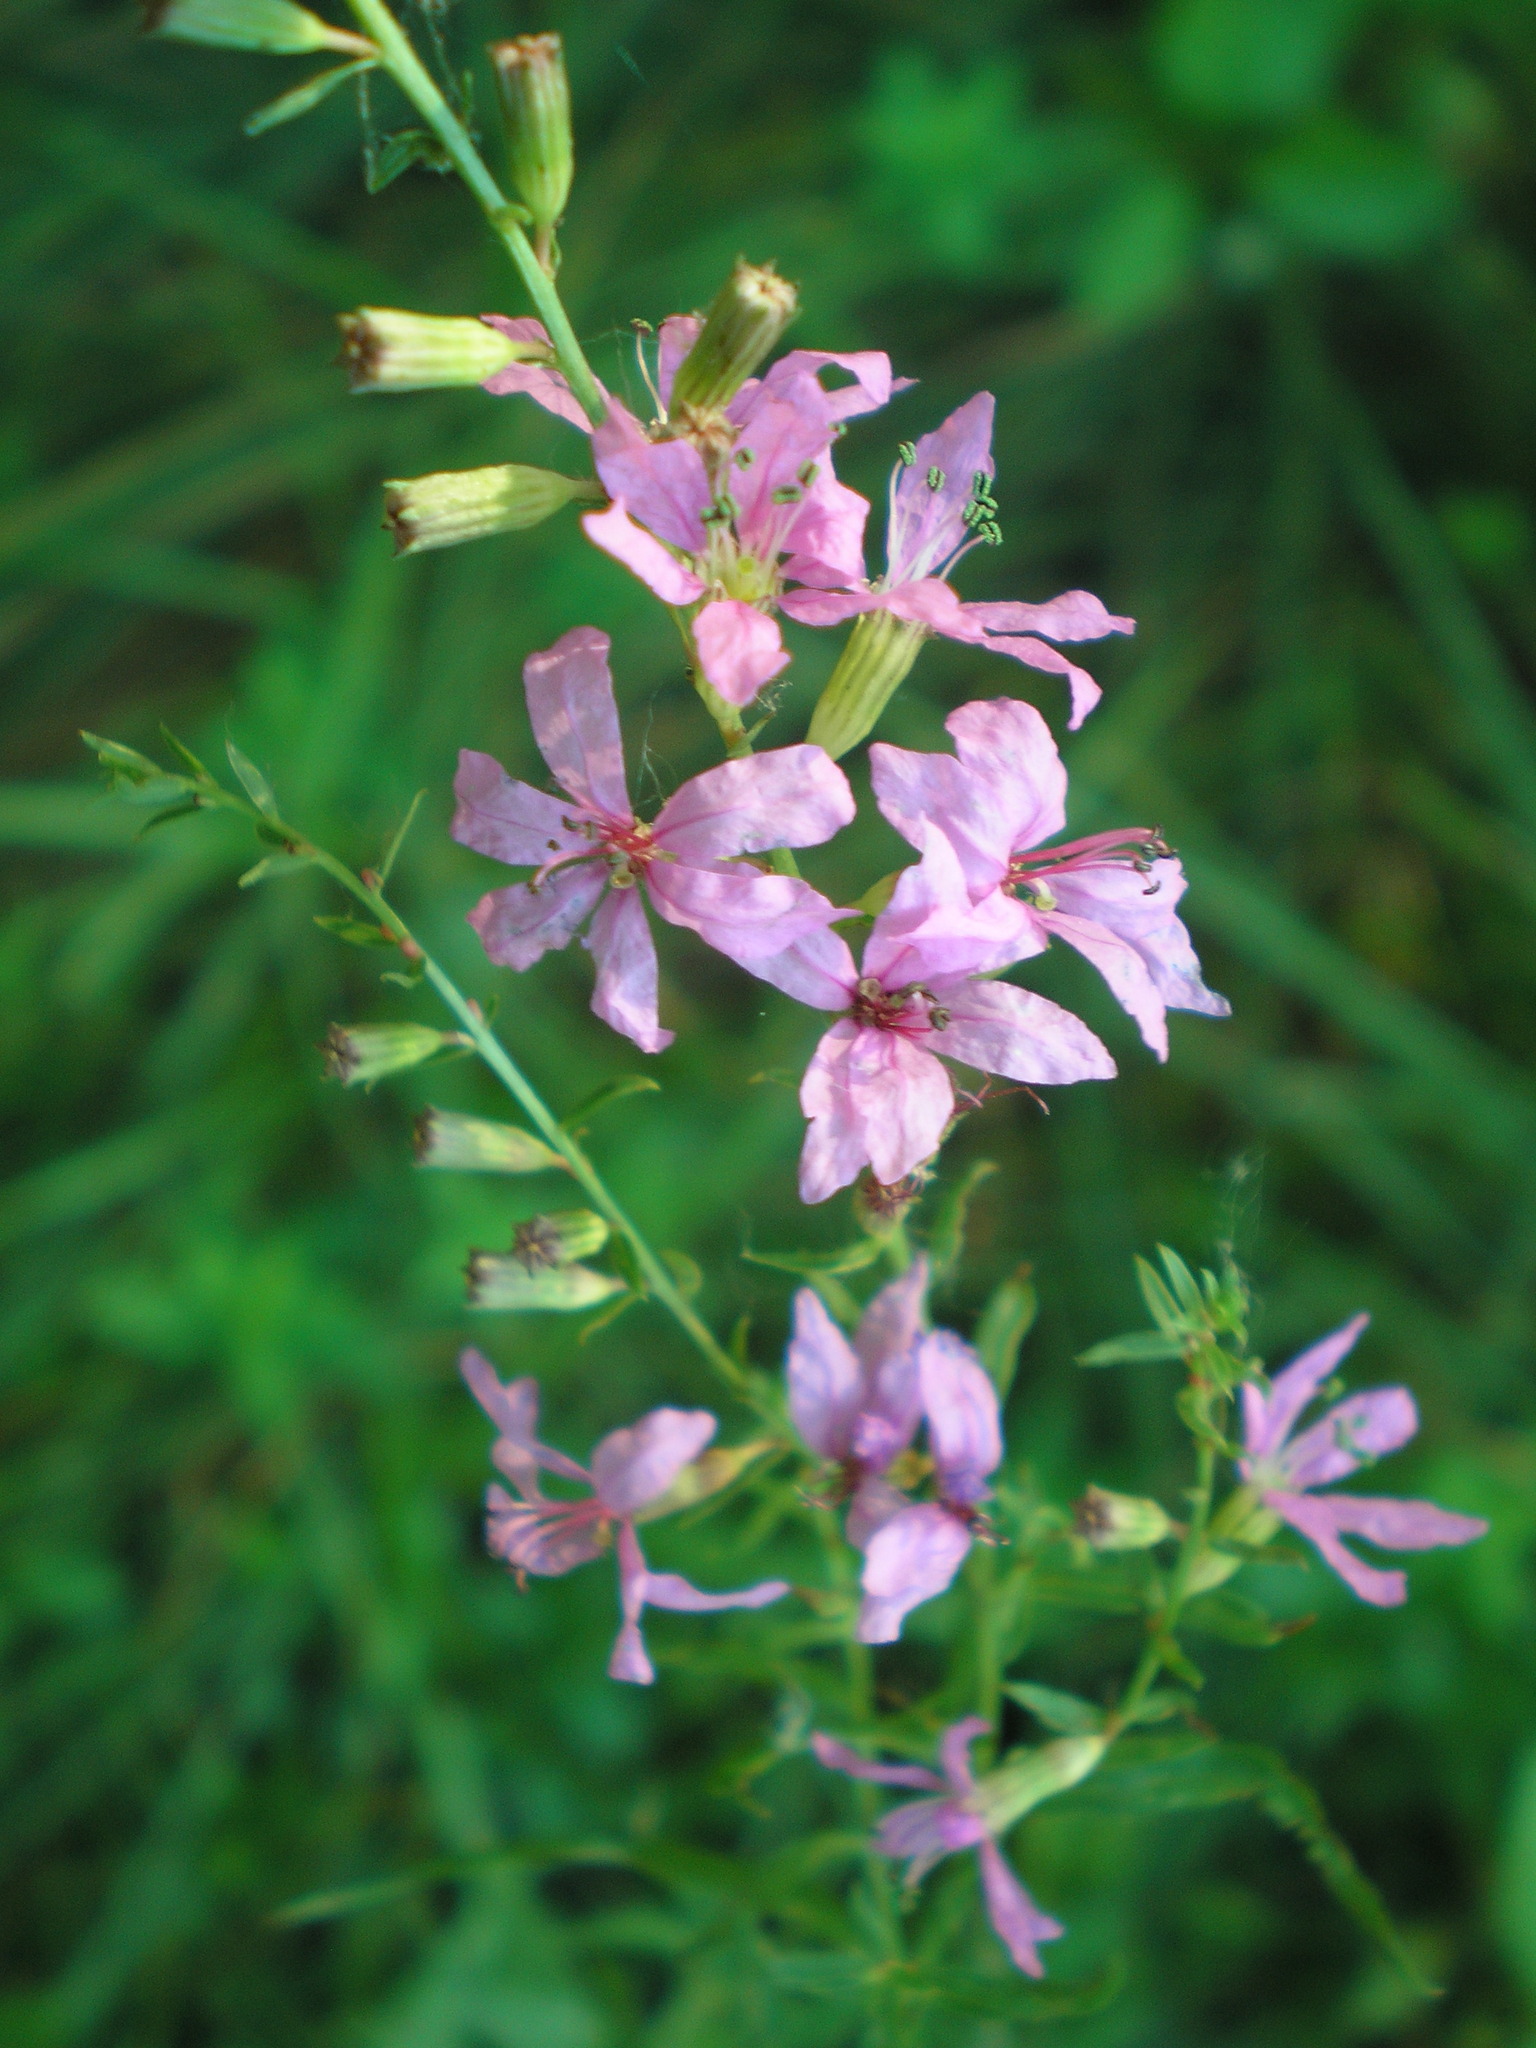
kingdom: Plantae
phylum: Tracheophyta
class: Magnoliopsida
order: Myrtales
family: Lythraceae
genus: Lythrum
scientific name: Lythrum virgatum
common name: European wand loosestrife
